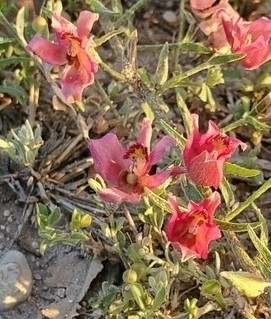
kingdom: Plantae
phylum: Tracheophyta
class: Magnoliopsida
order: Zygophyllales
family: Krameriaceae
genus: Krameria
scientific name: Krameria lanceolata
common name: Ratany
